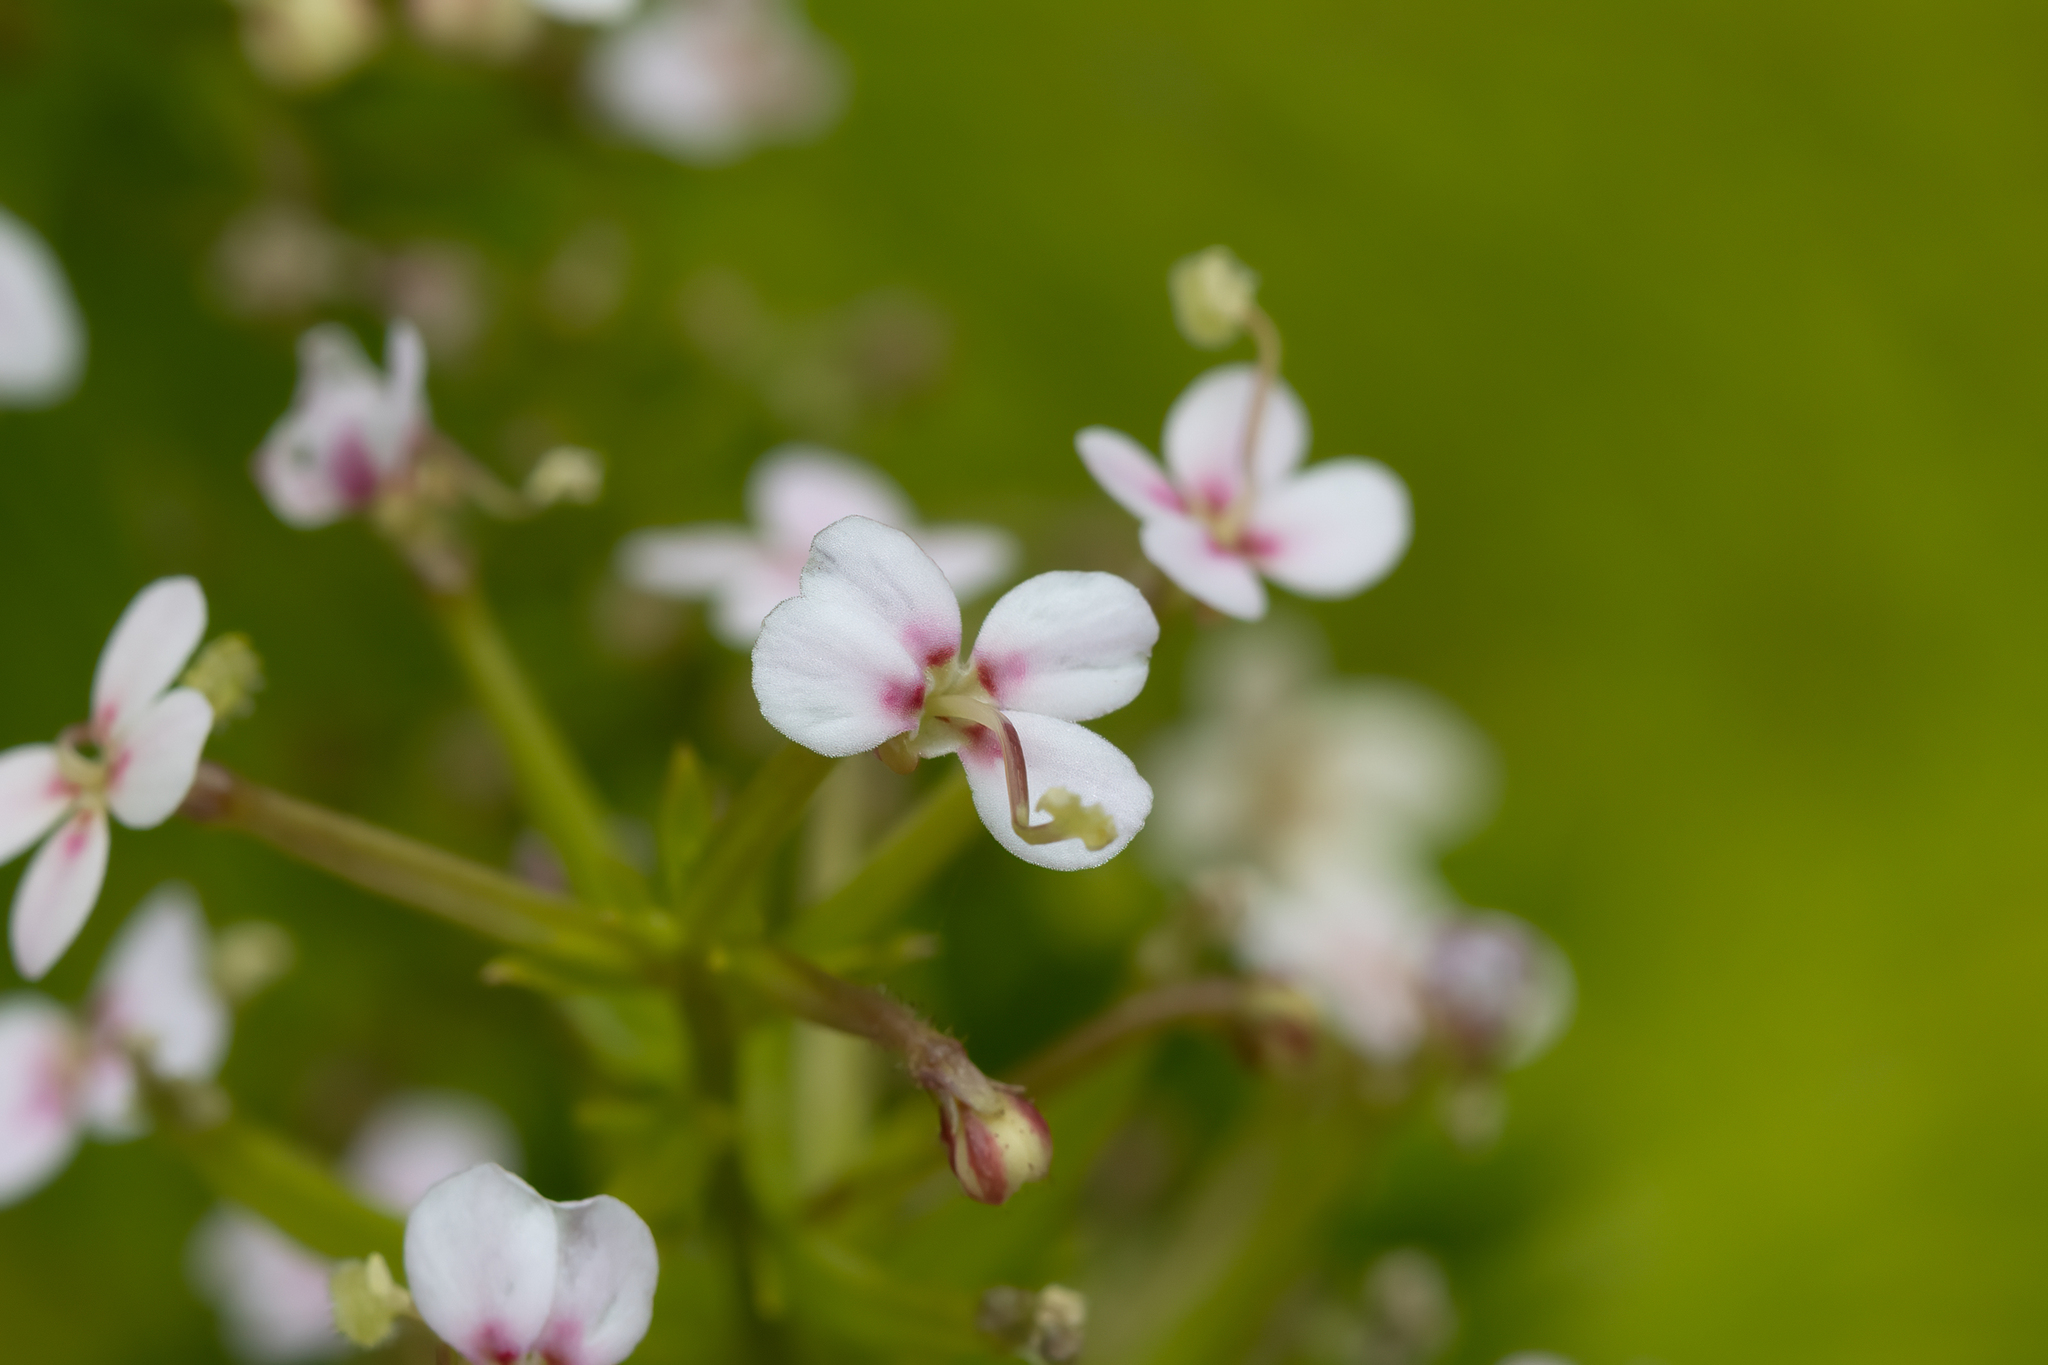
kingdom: Plantae
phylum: Tracheophyta
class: Magnoliopsida
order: Asterales
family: Stylidiaceae
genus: Stylidium
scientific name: Stylidium adnatum
